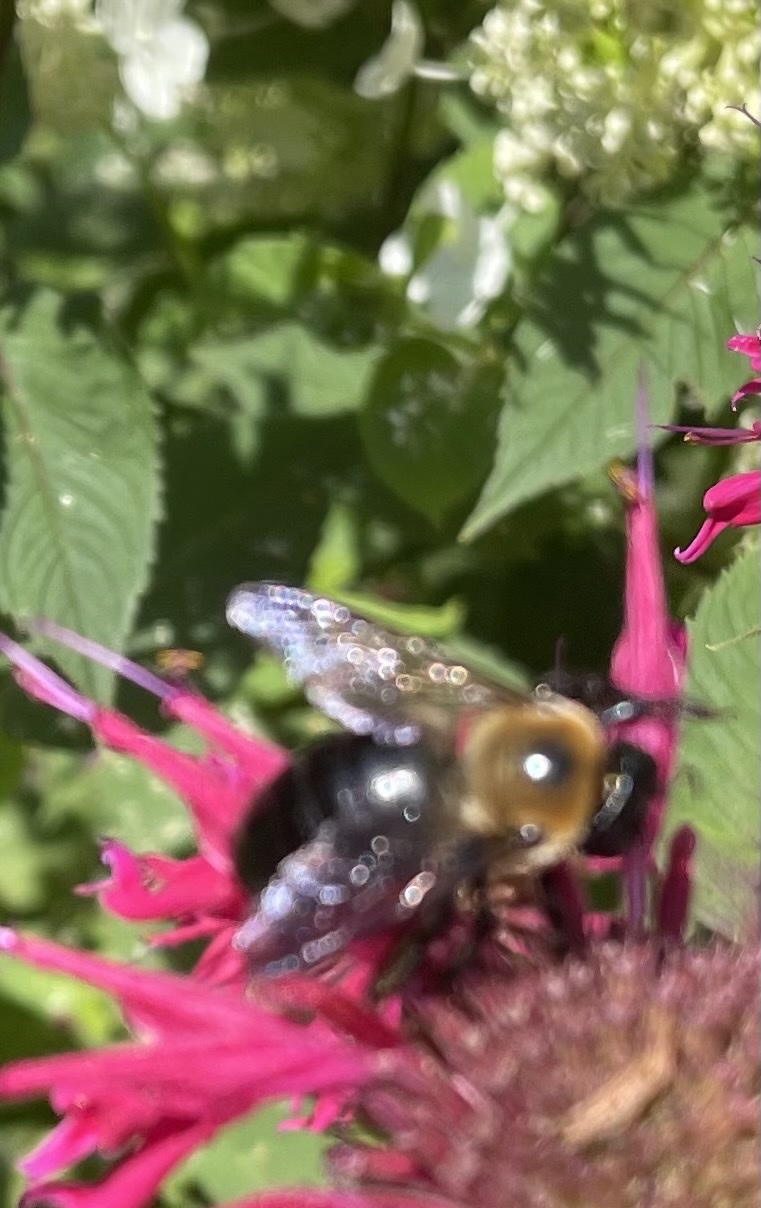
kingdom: Animalia
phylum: Arthropoda
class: Insecta
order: Hymenoptera
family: Apidae
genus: Xylocopa
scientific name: Xylocopa virginica
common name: Carpenter bee
